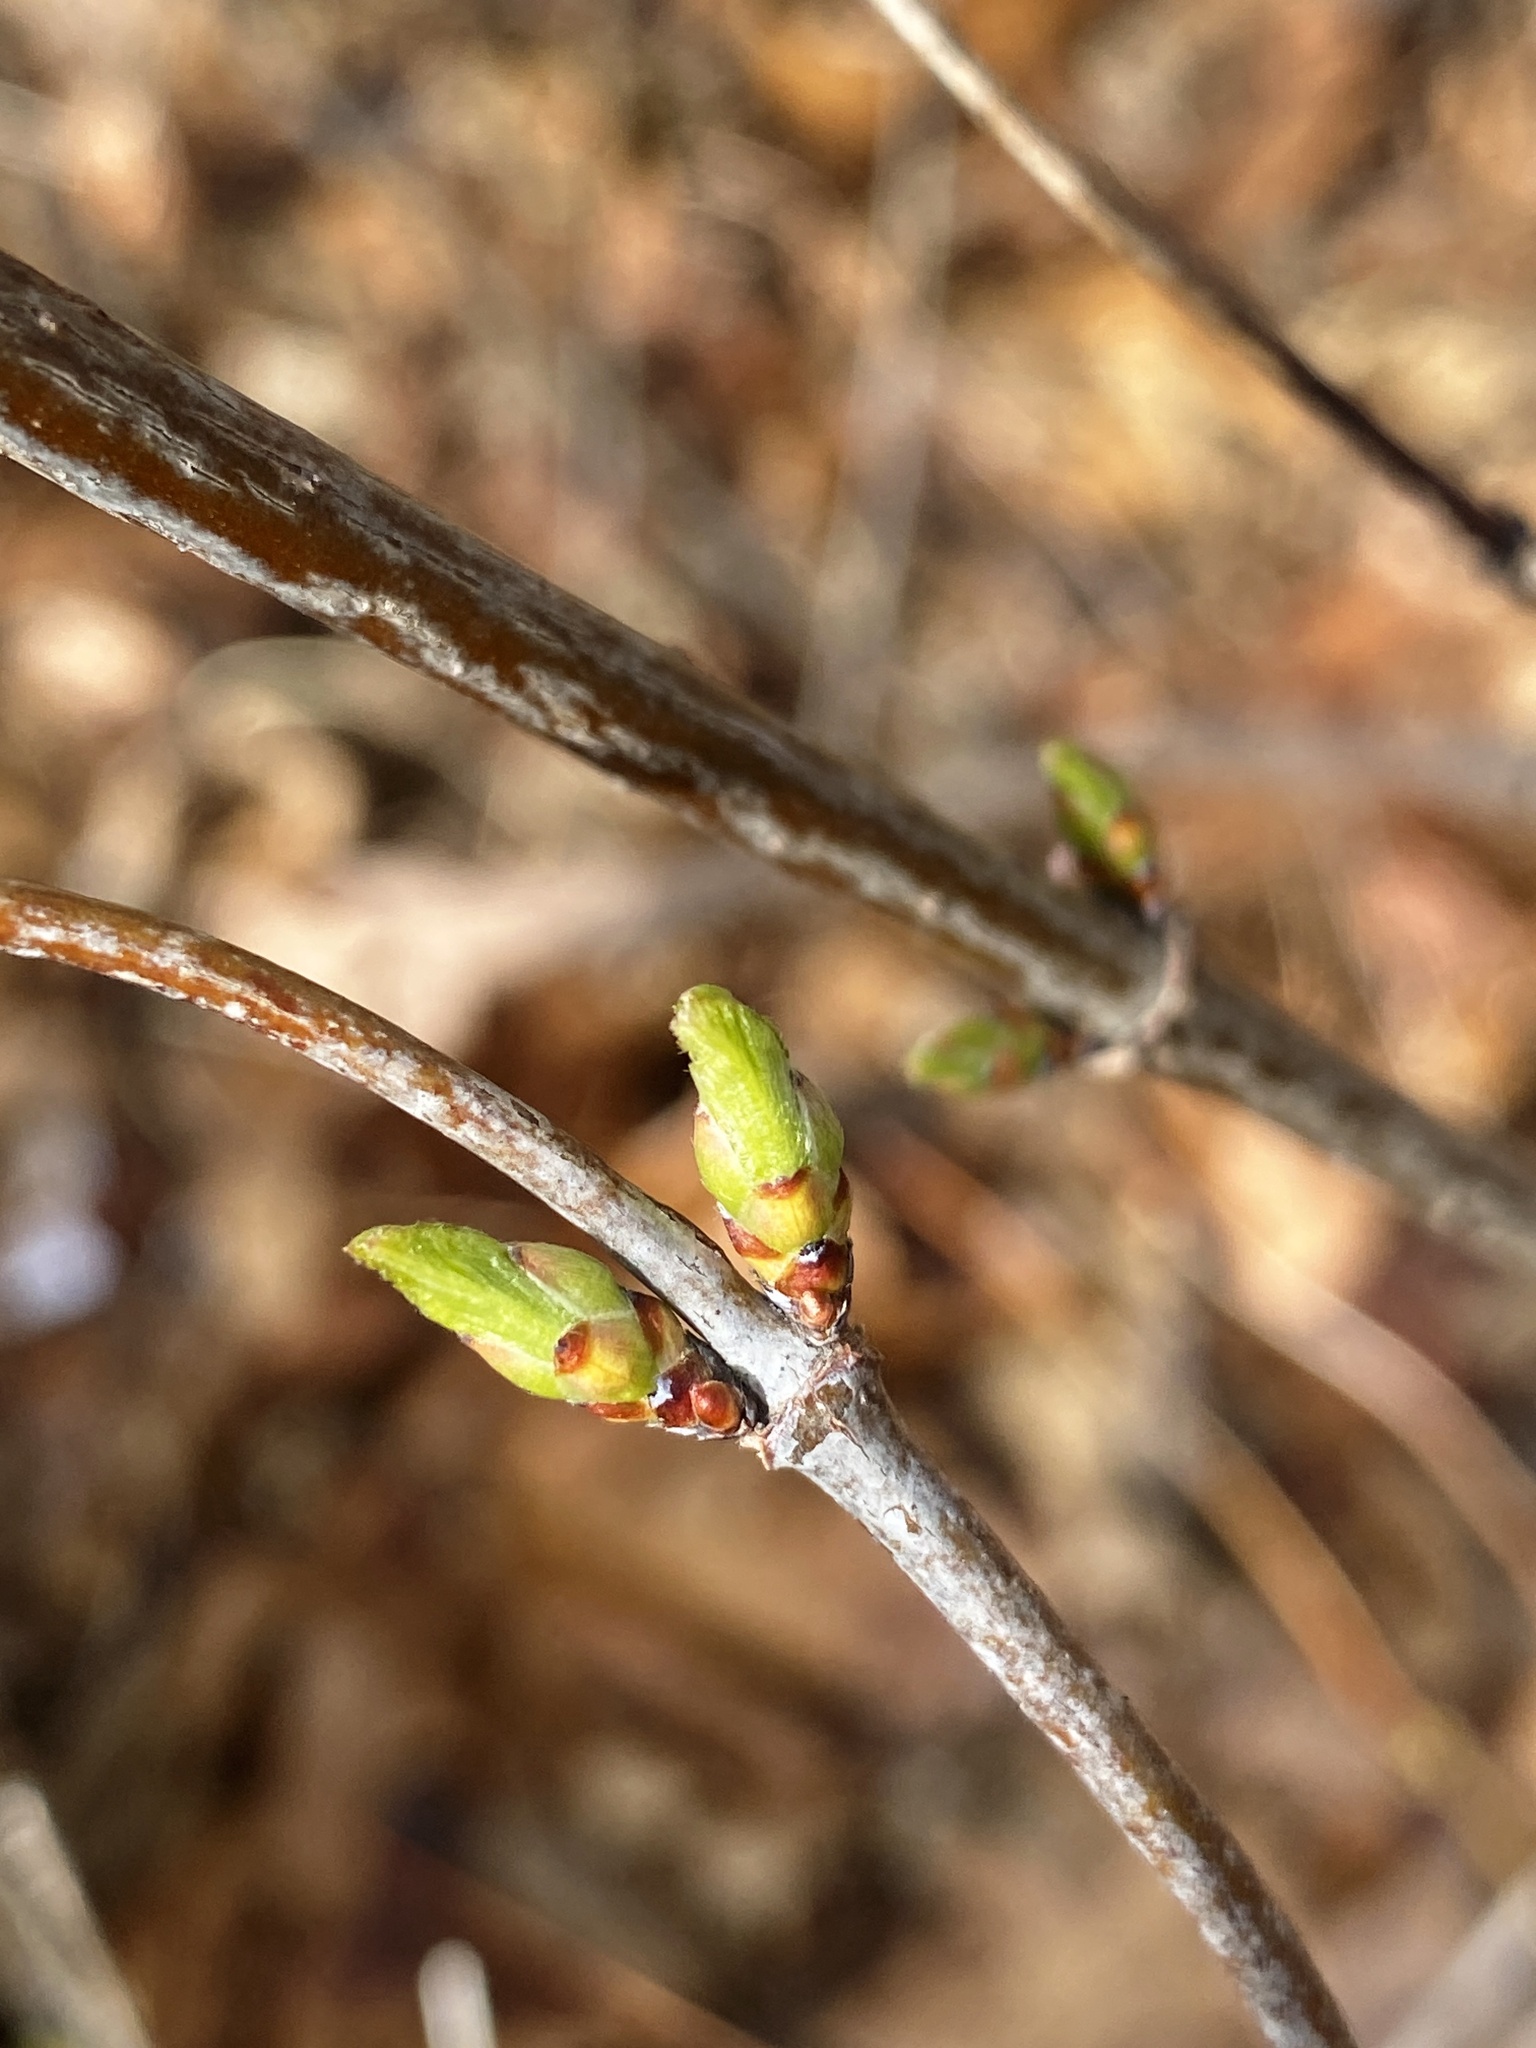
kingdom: Plantae
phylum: Tracheophyta
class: Magnoliopsida
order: Rosales
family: Rosaceae
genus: Rhodotypos
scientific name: Rhodotypos scandens
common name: Jetbead
